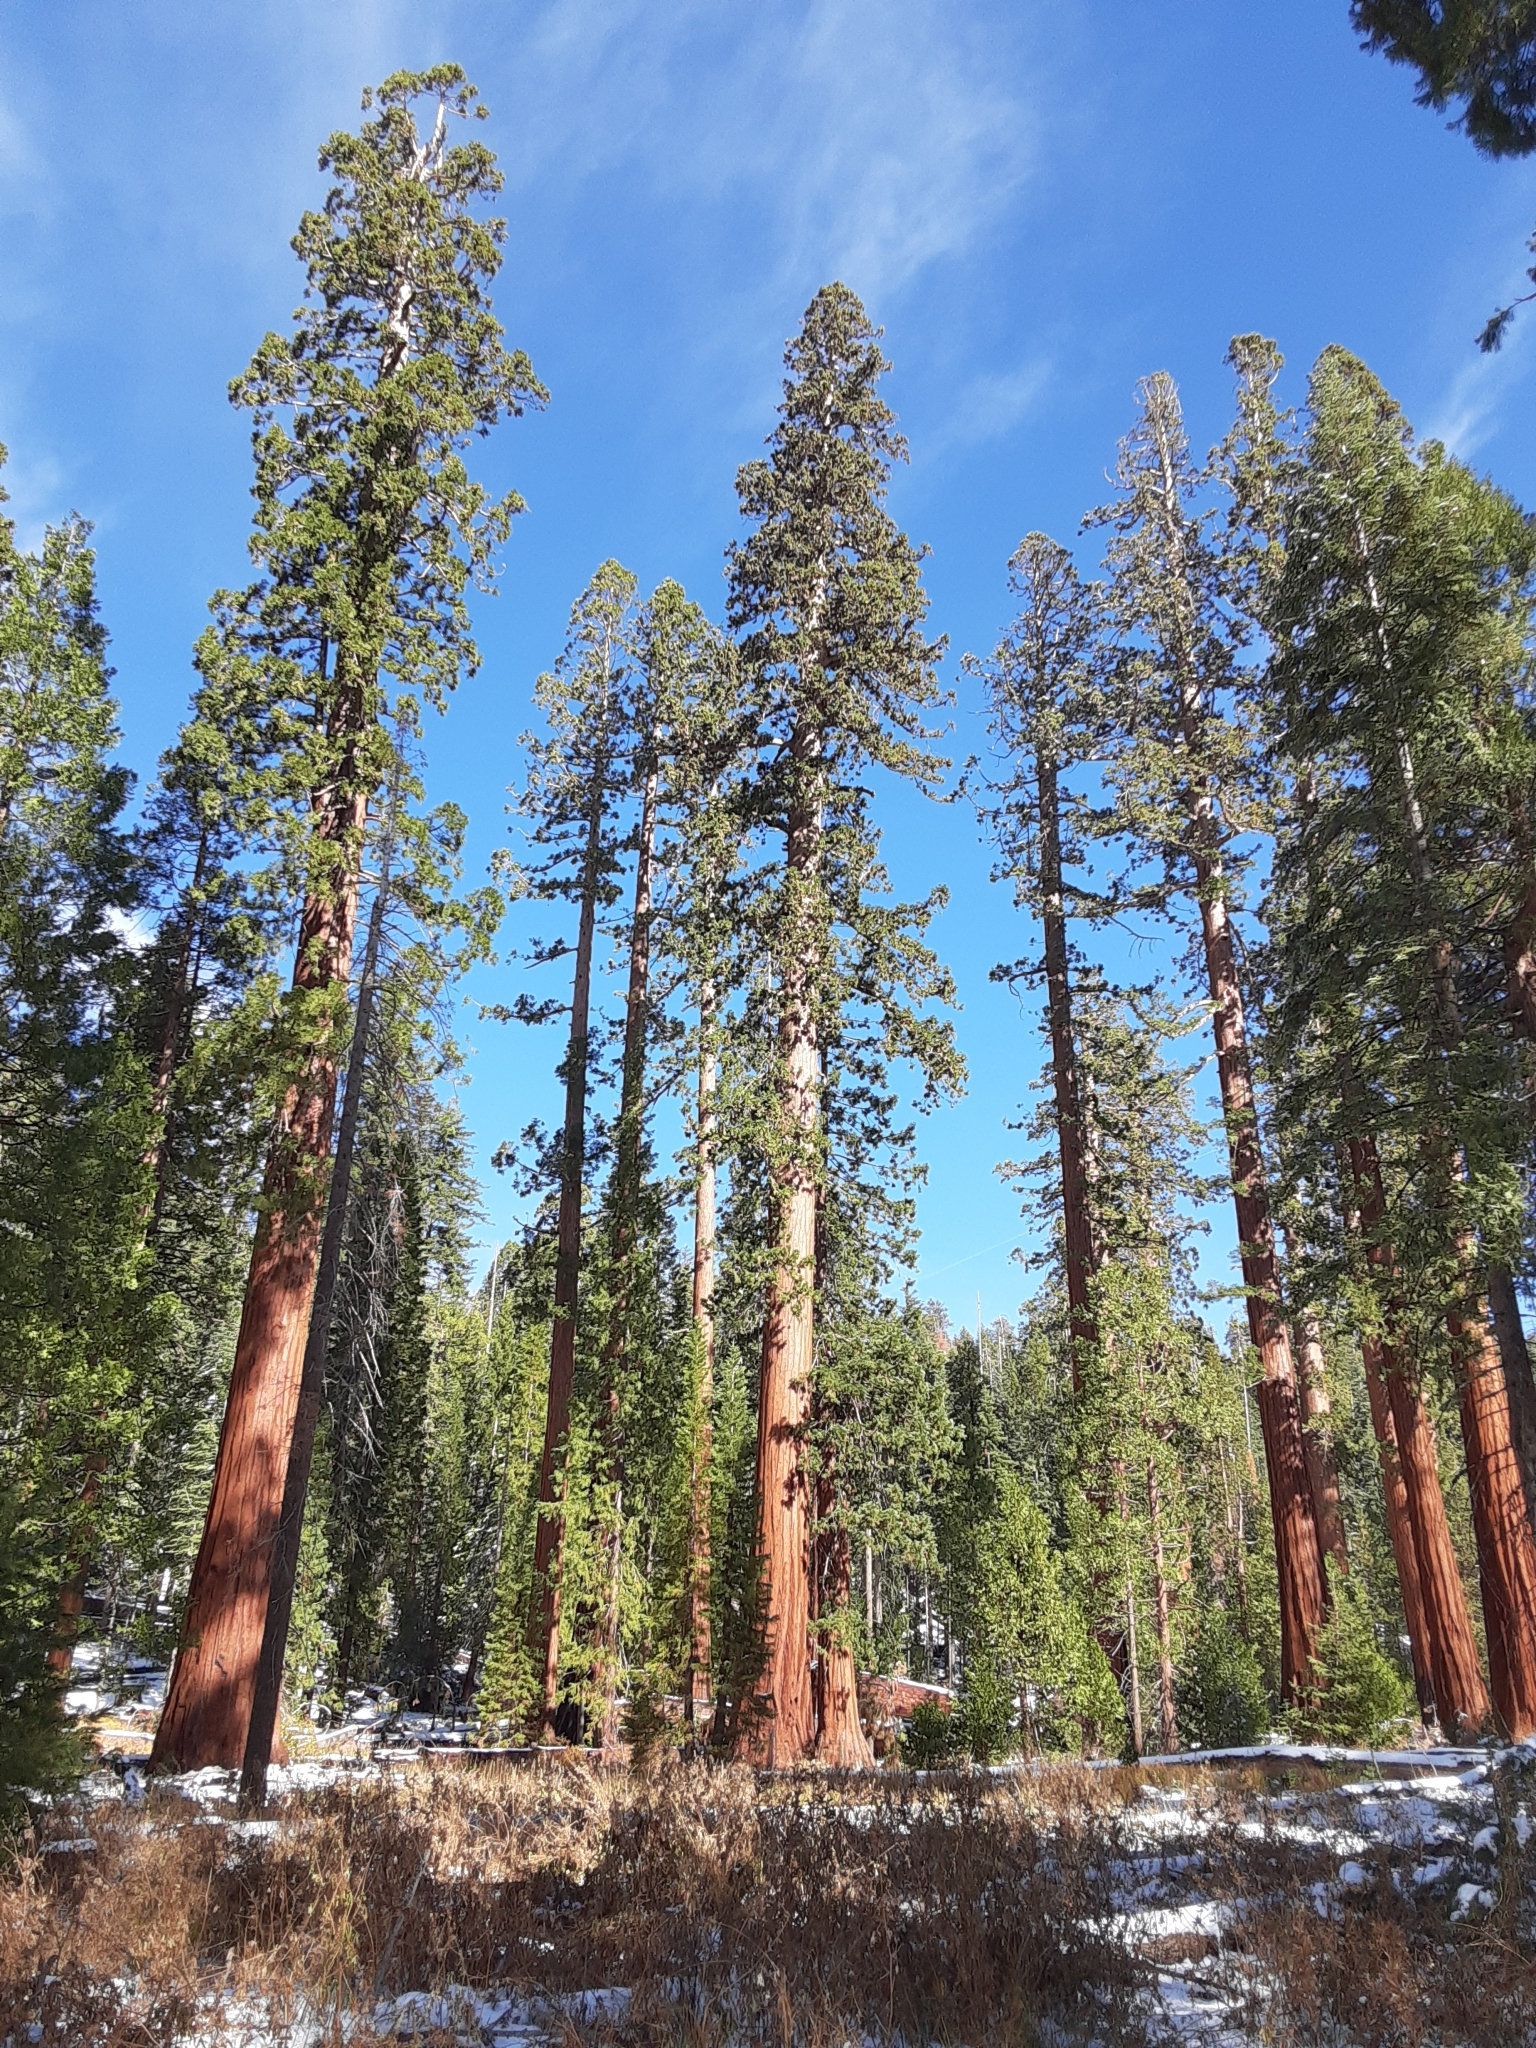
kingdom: Plantae
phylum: Tracheophyta
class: Pinopsida
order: Pinales
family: Cupressaceae
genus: Sequoiadendron
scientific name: Sequoiadendron giganteum
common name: Wellingtonia
